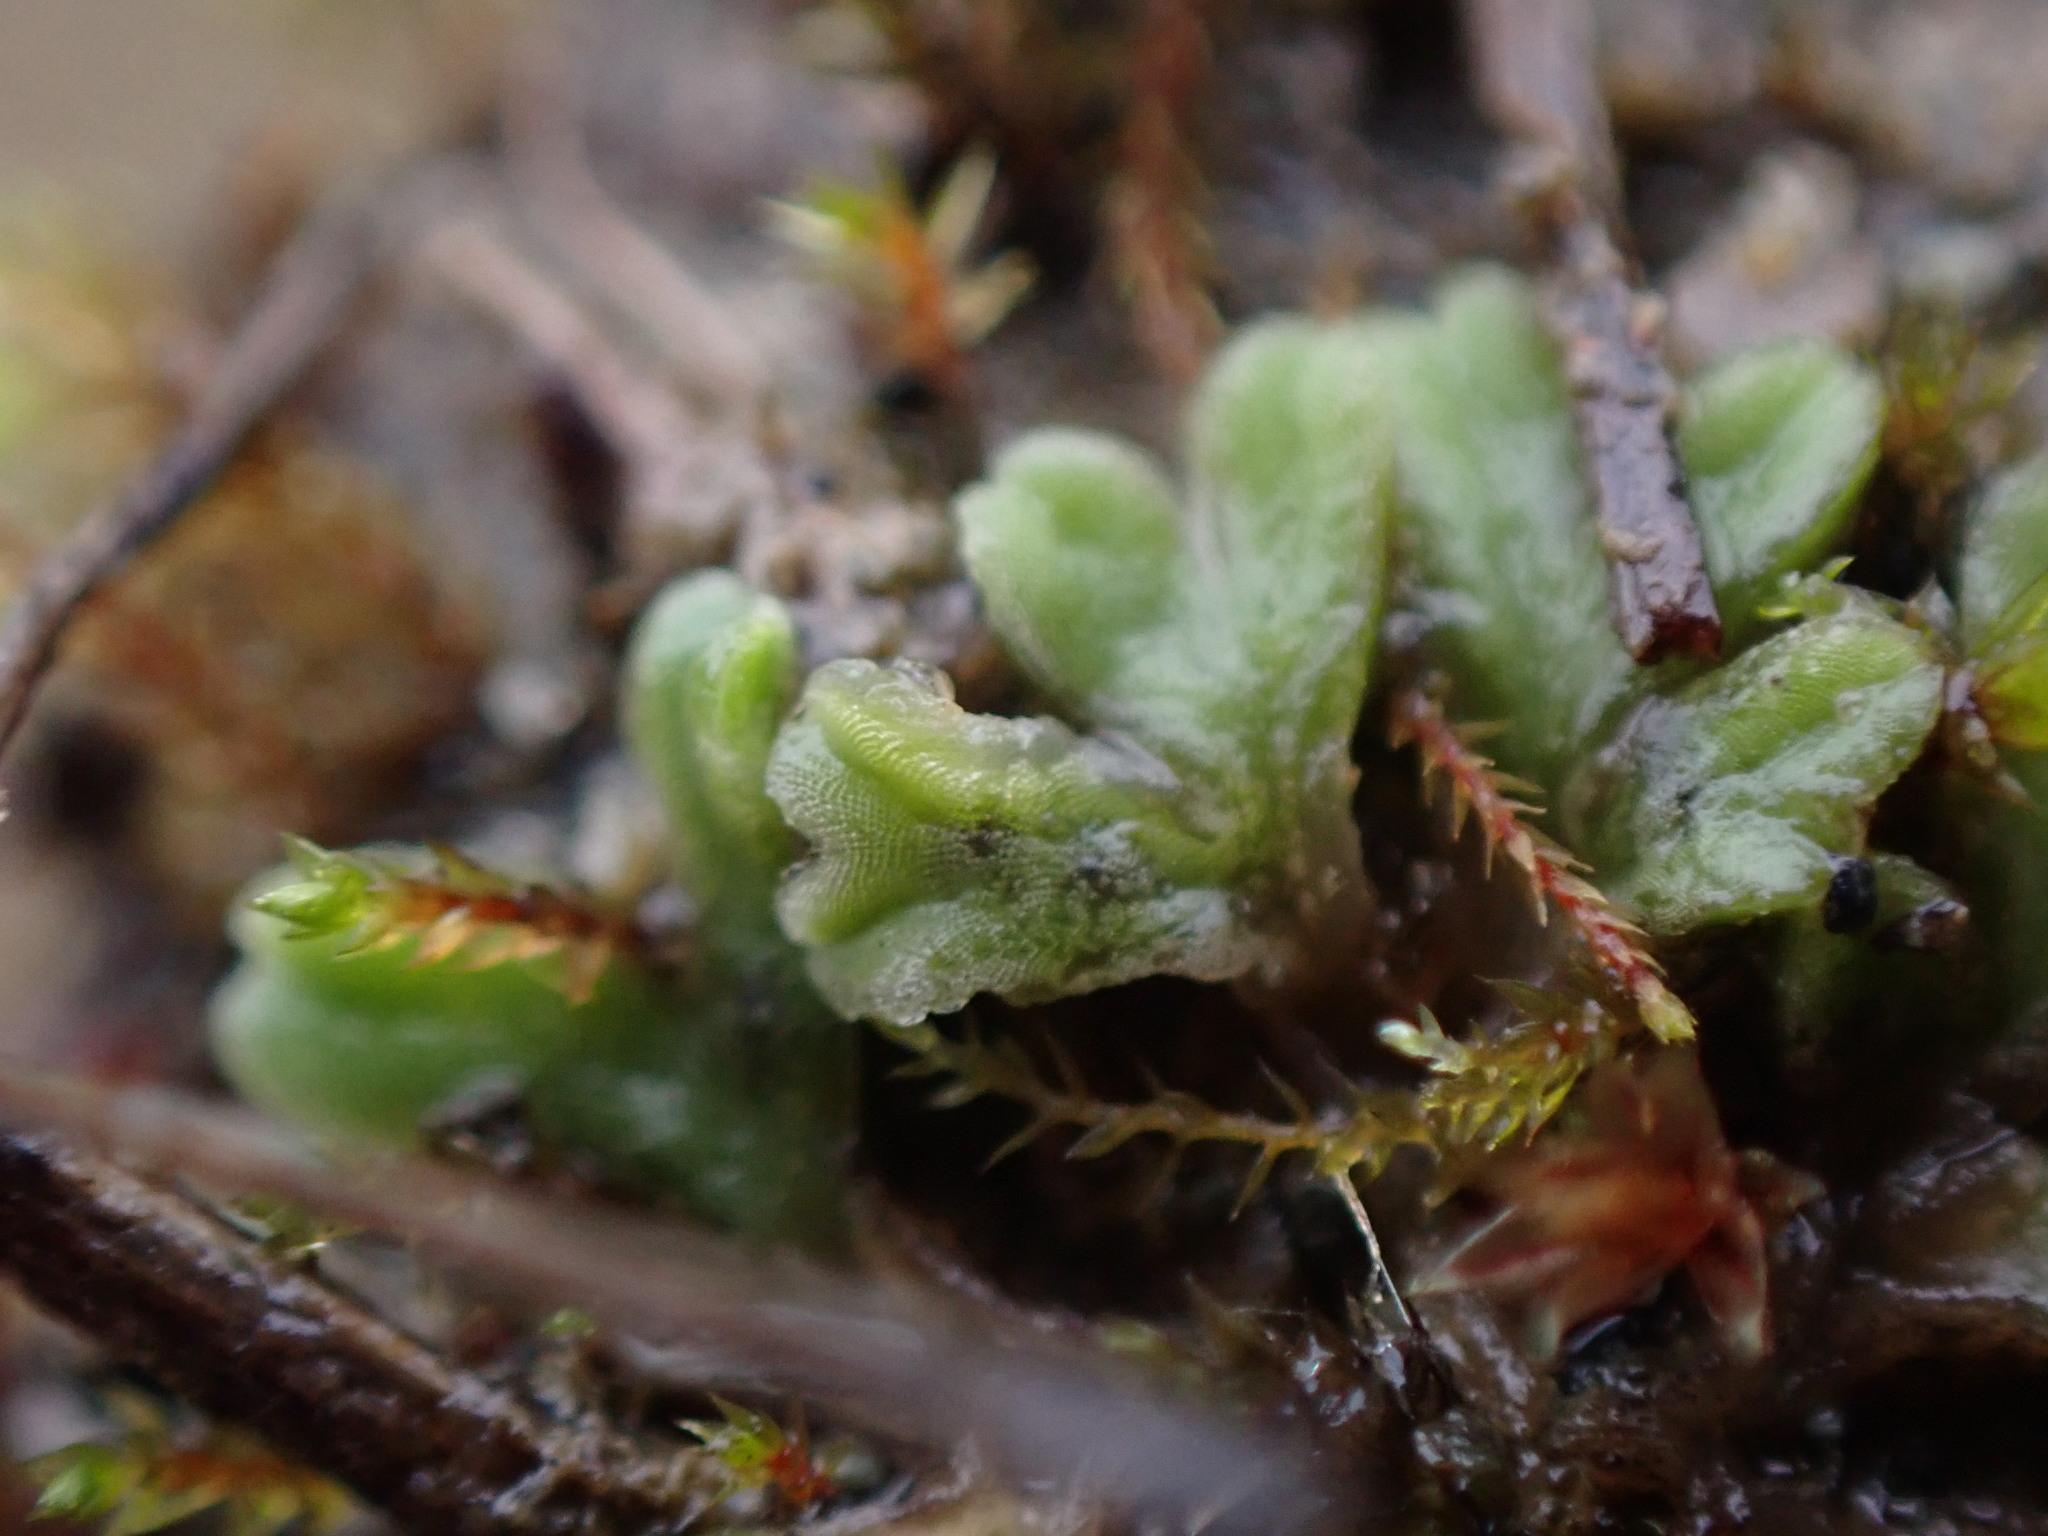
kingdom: Plantae
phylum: Marchantiophyta
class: Marchantiopsida
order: Marchantiales
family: Ricciaceae
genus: Riccia
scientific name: Riccia sorocarpa
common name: Common crystalwort
